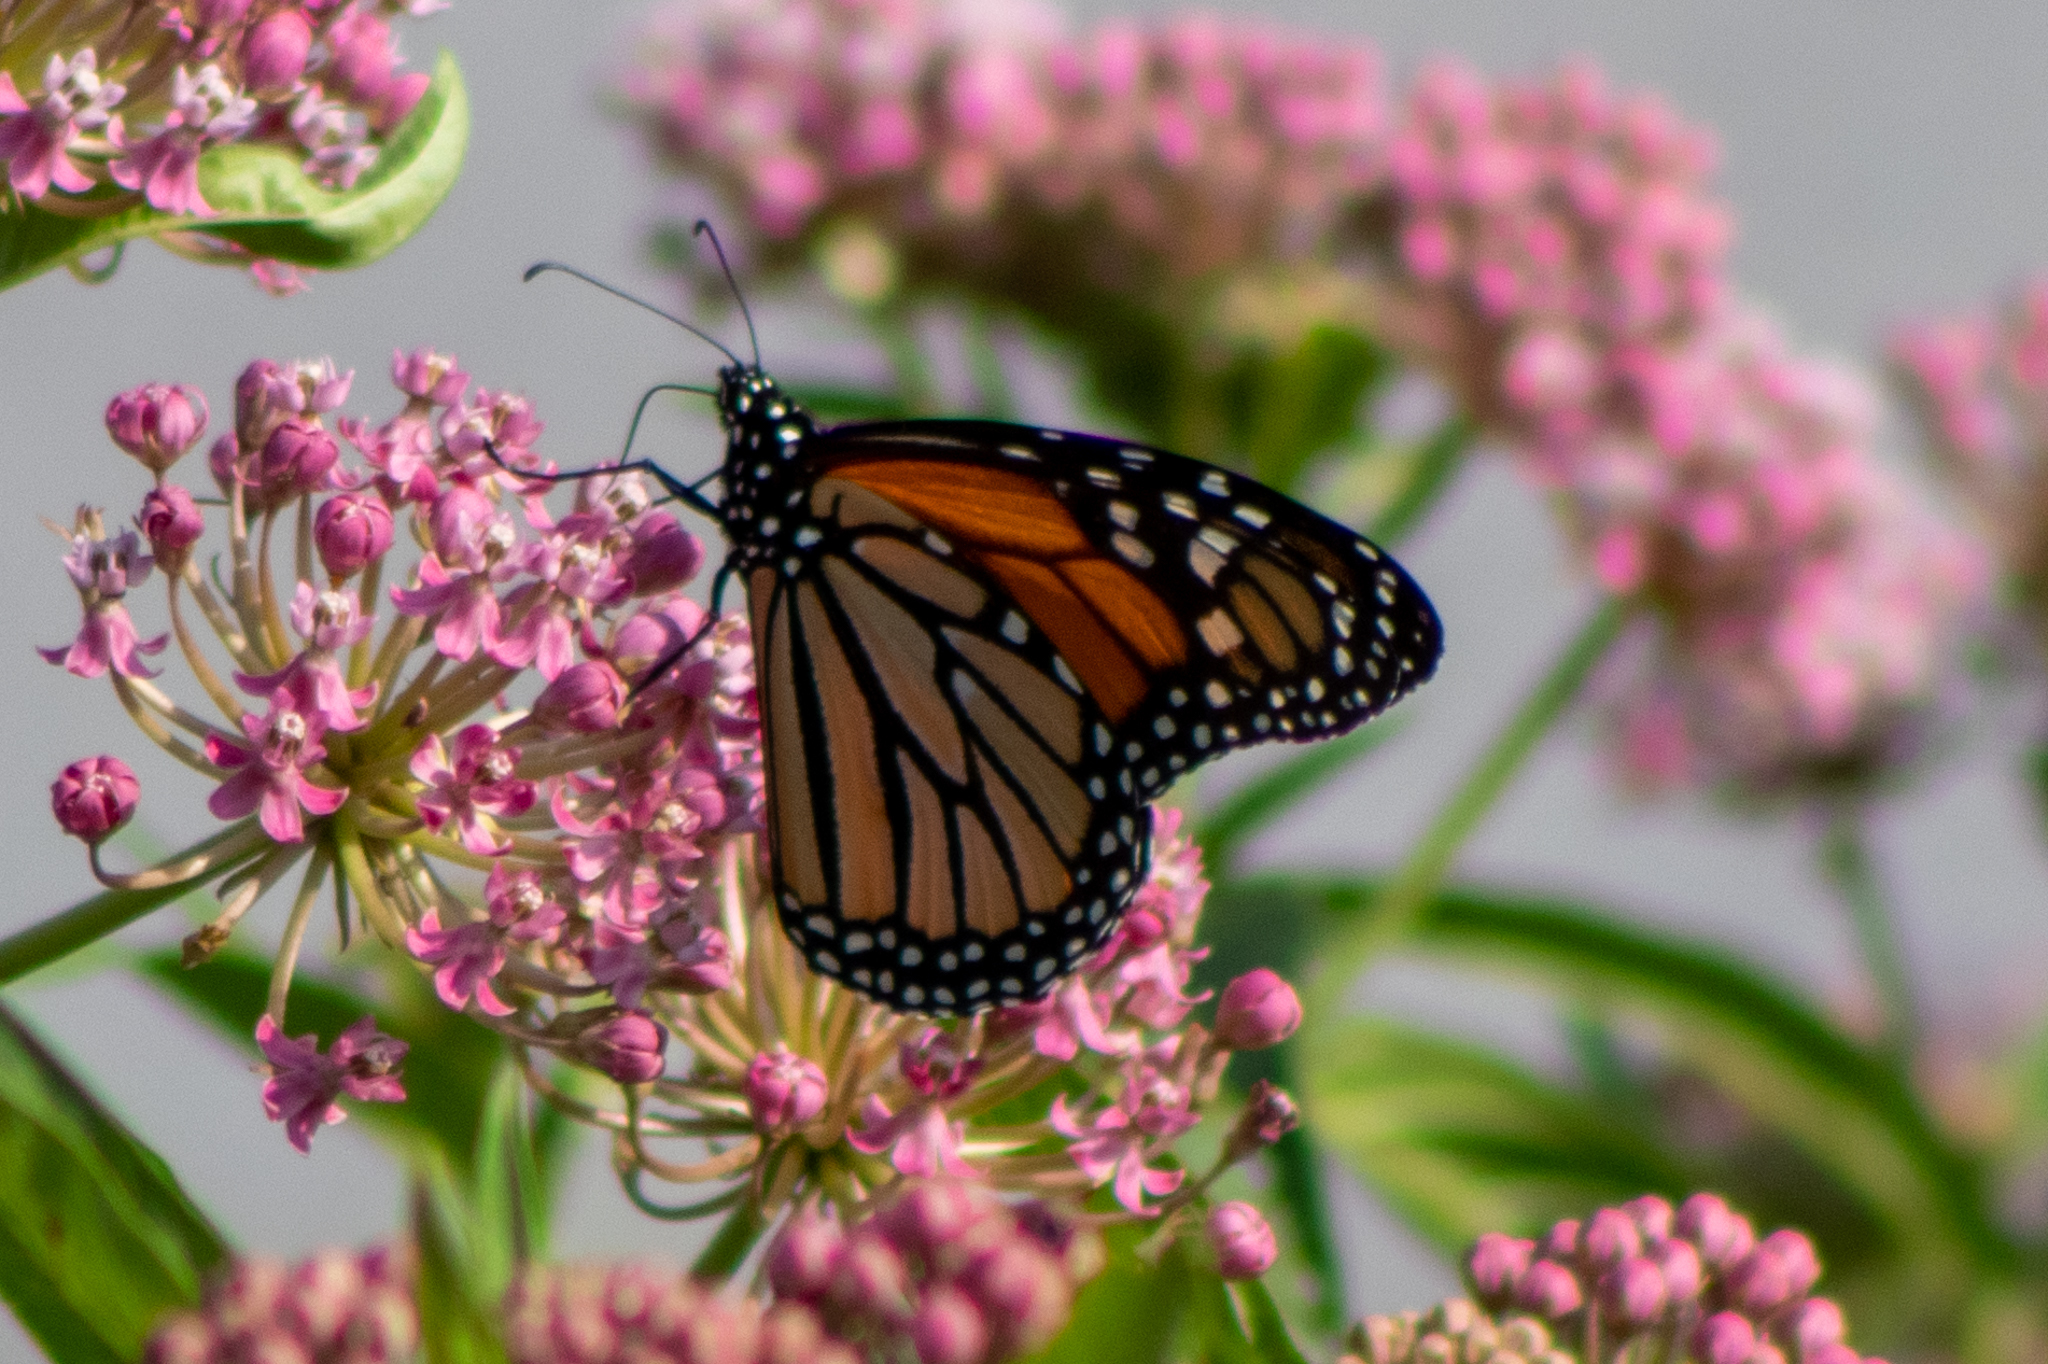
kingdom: Animalia
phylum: Arthropoda
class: Insecta
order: Lepidoptera
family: Nymphalidae
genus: Danaus
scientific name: Danaus plexippus
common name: Monarch
